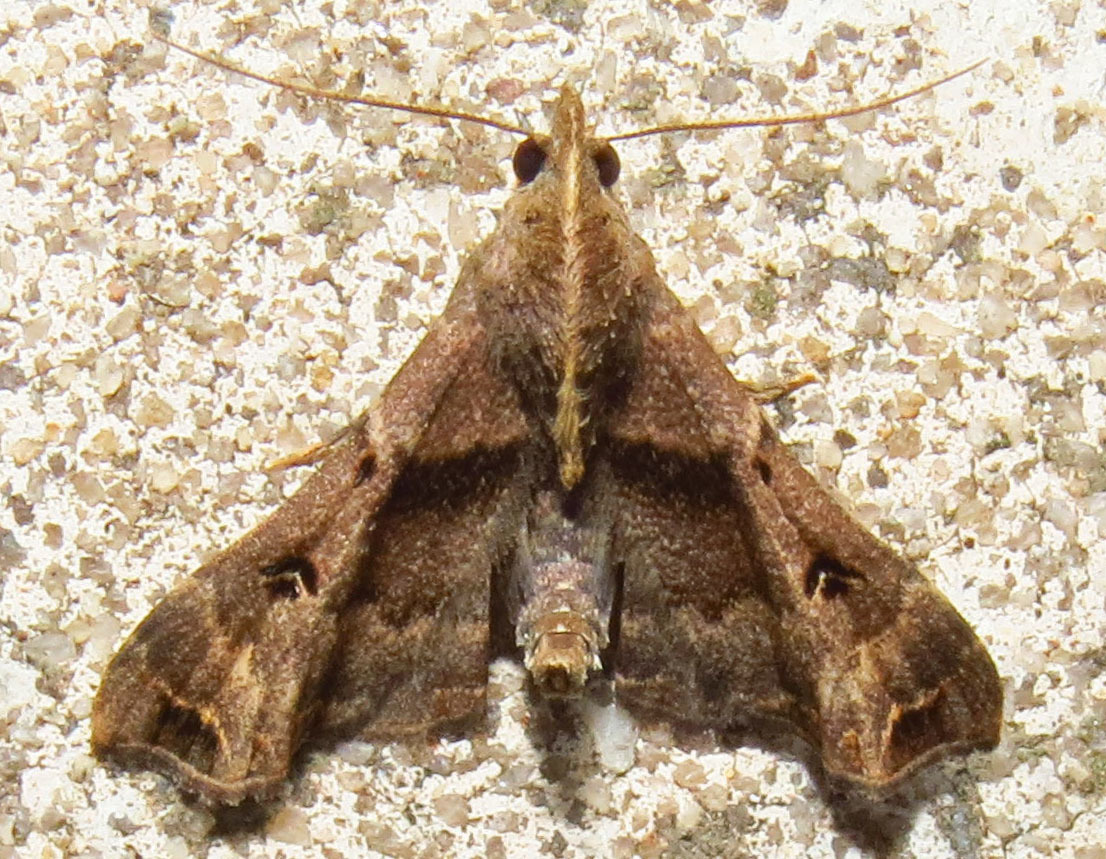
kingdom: Animalia
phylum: Arthropoda
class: Insecta
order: Lepidoptera
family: Erebidae
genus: Palthis
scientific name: Palthis asopialis
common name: Faint-spotted palthis moth
